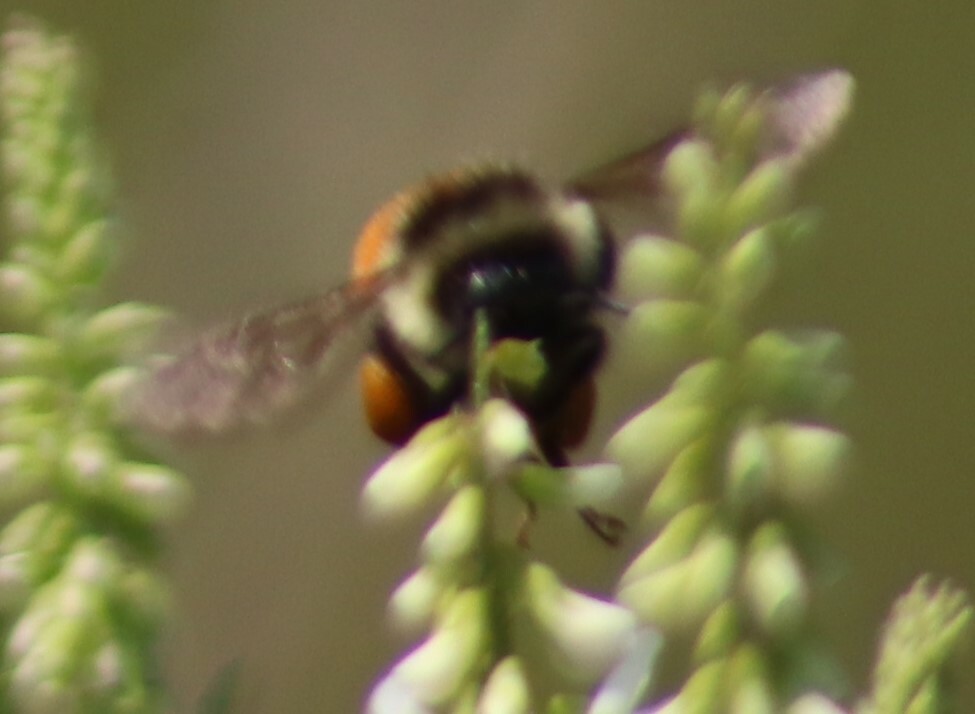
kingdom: Animalia
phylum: Arthropoda
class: Insecta
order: Hymenoptera
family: Apidae
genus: Bombus
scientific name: Bombus ternarius
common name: Tri-colored bumble bee
